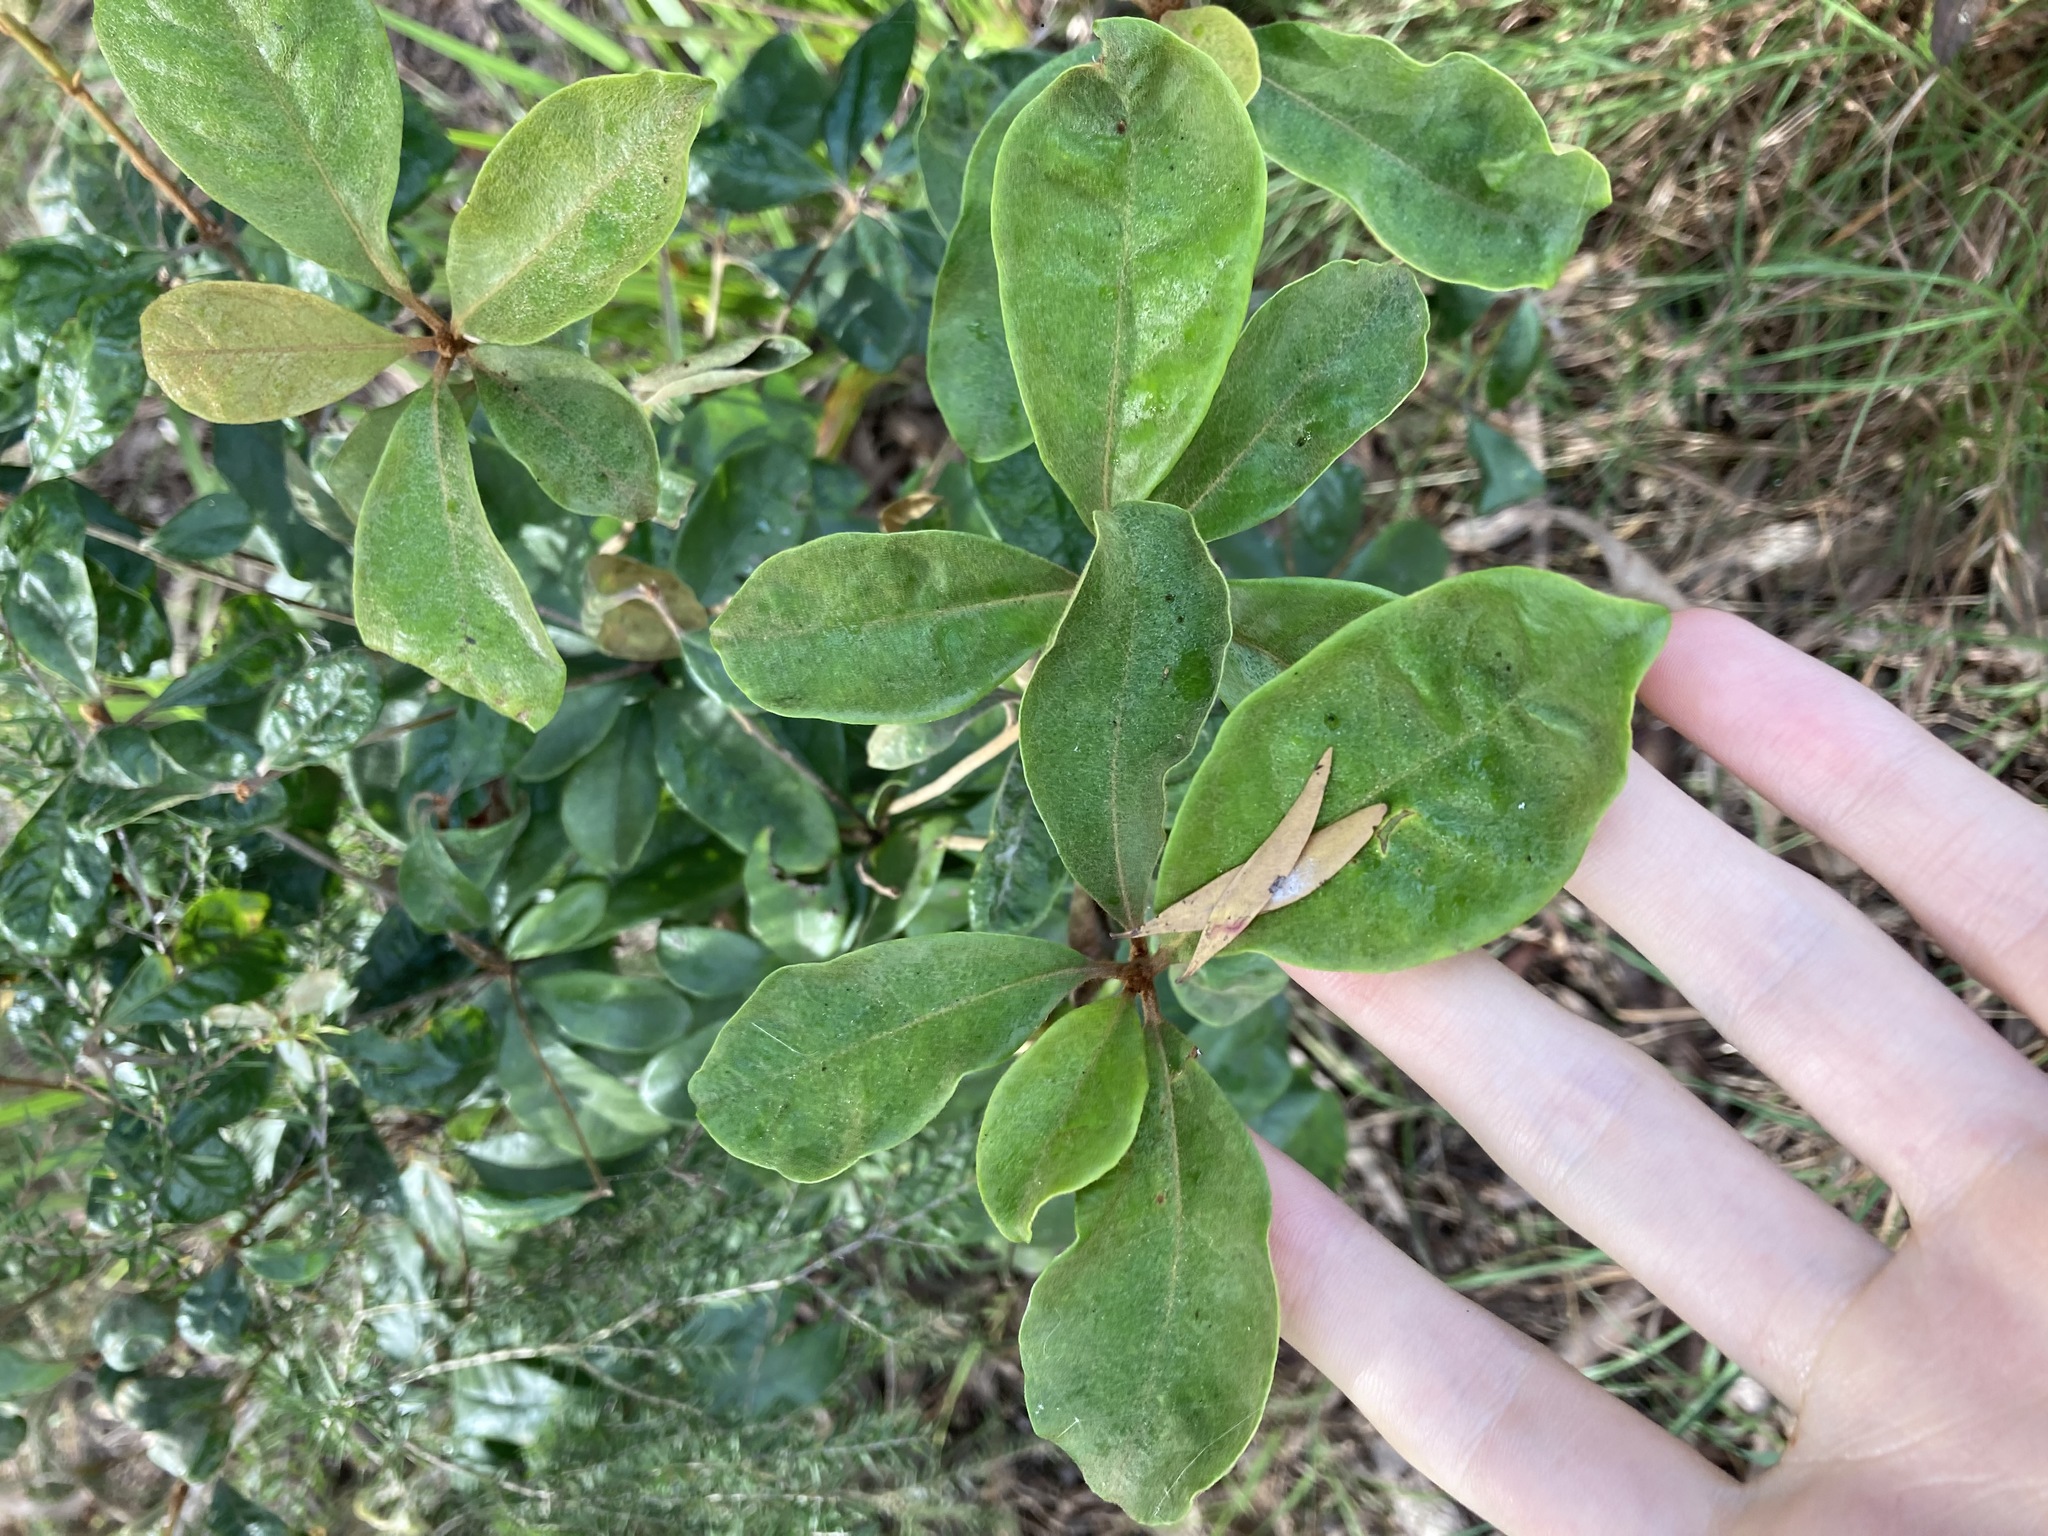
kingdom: Plantae
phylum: Tracheophyta
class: Magnoliopsida
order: Apiales
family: Pittosporaceae
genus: Pittosporum
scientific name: Pittosporum revolutum
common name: Brisbane-laurel
